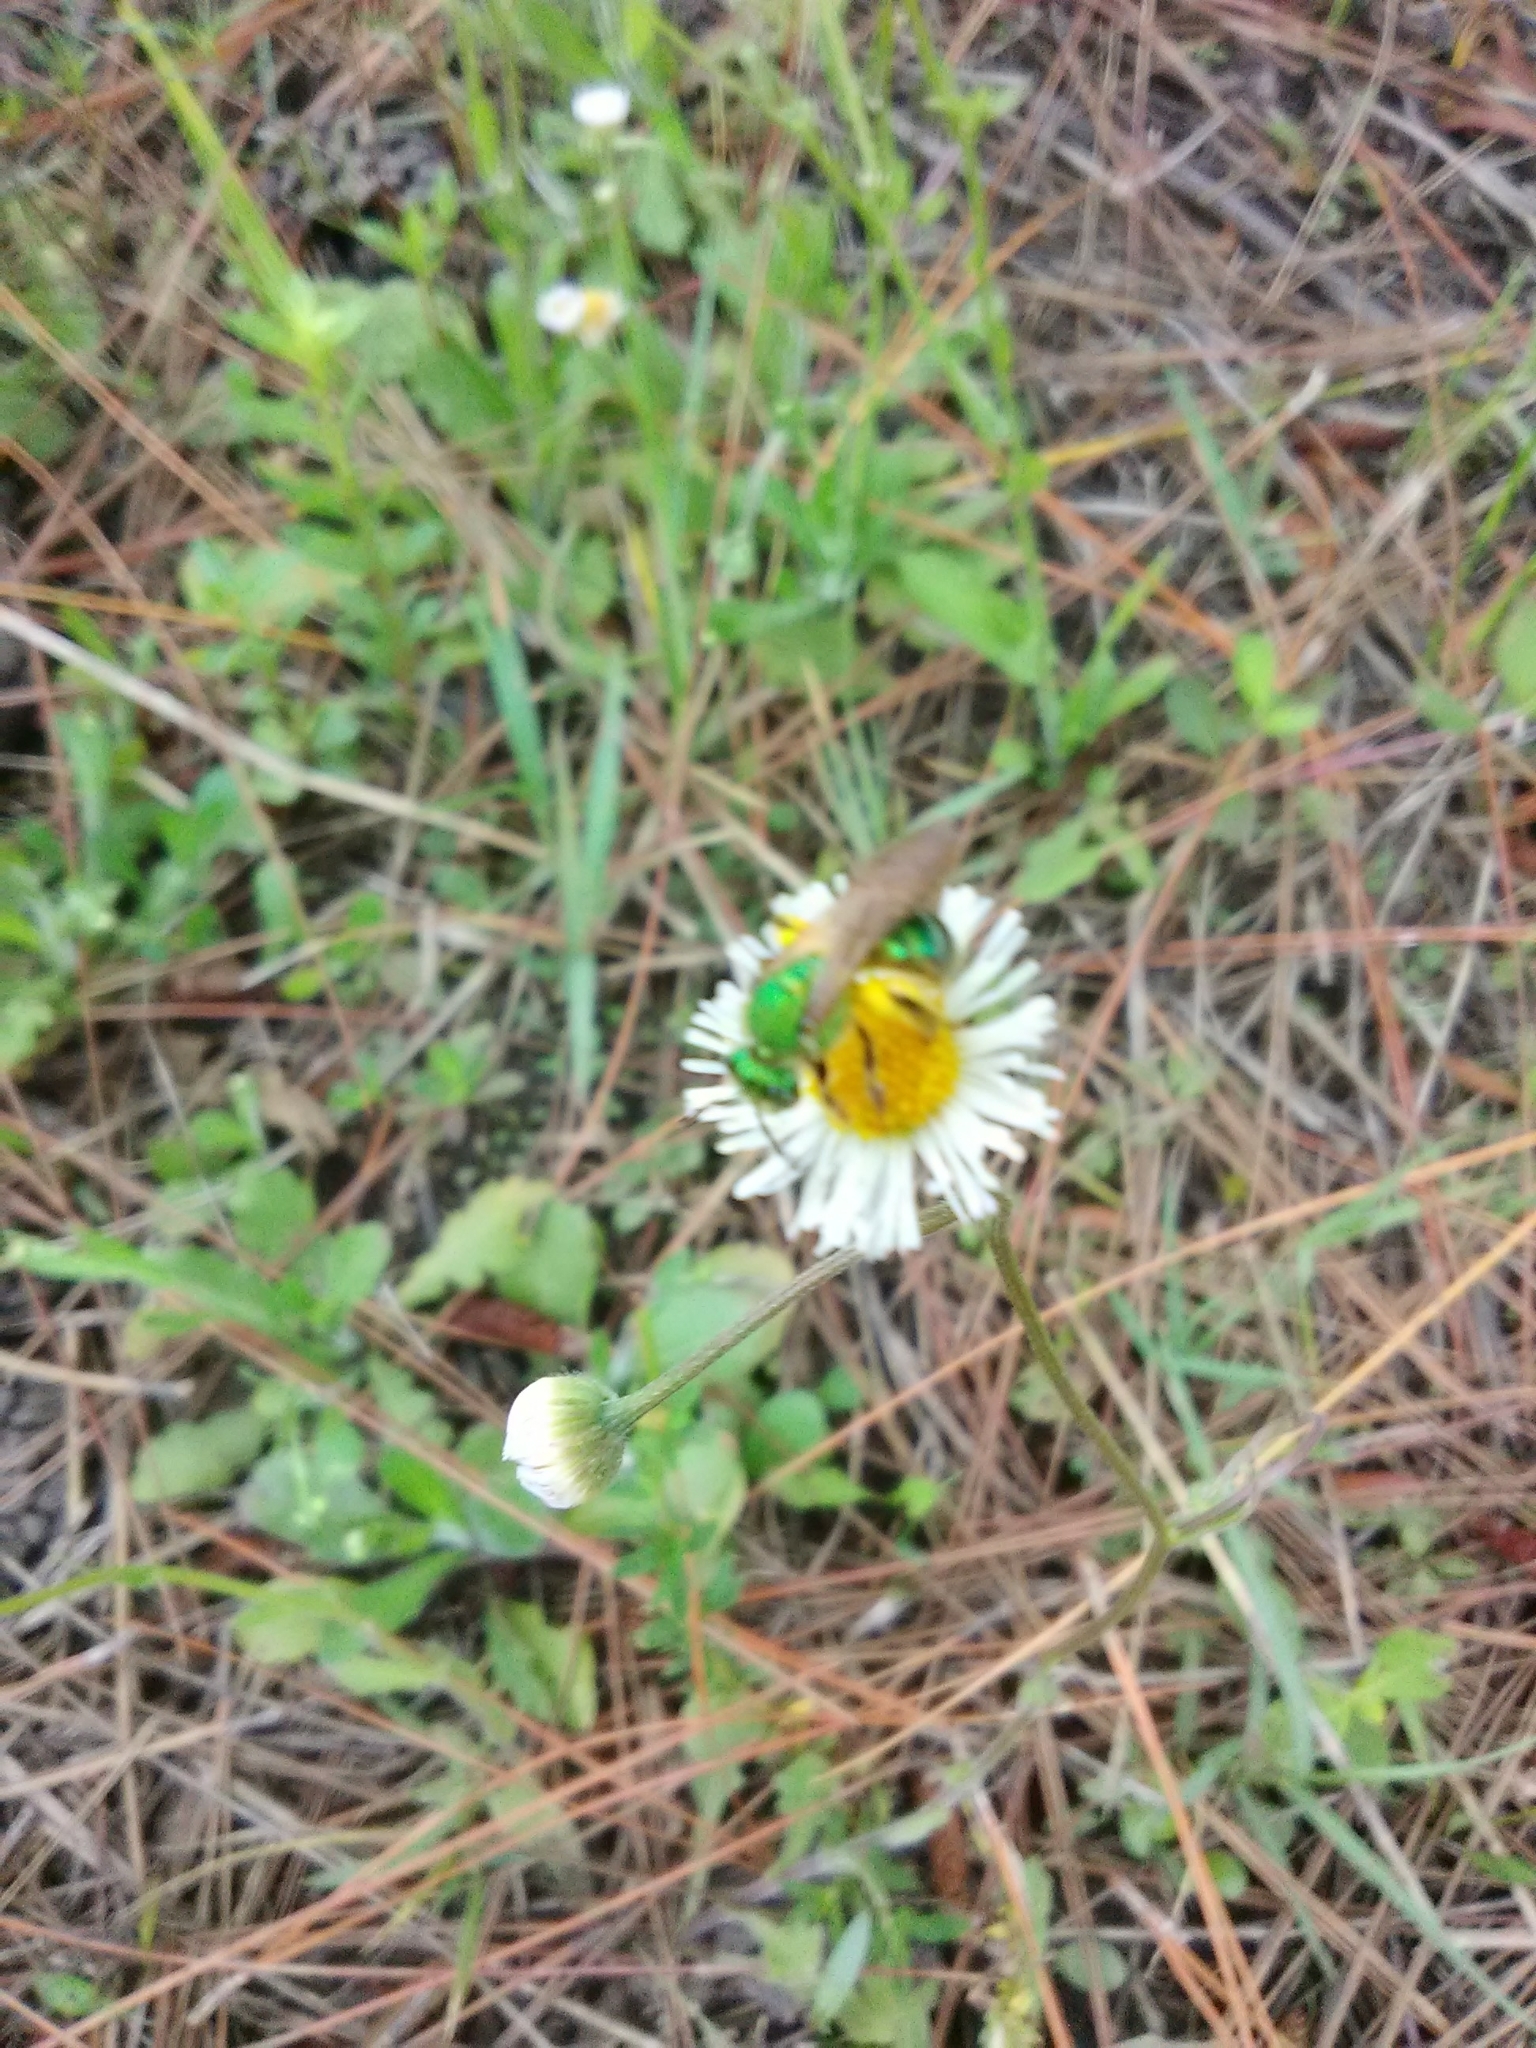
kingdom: Animalia
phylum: Arthropoda
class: Insecta
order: Hymenoptera
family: Halictidae
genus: Agapostemon
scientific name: Agapostemon splendens
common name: Brown-winged striped sweat bee
